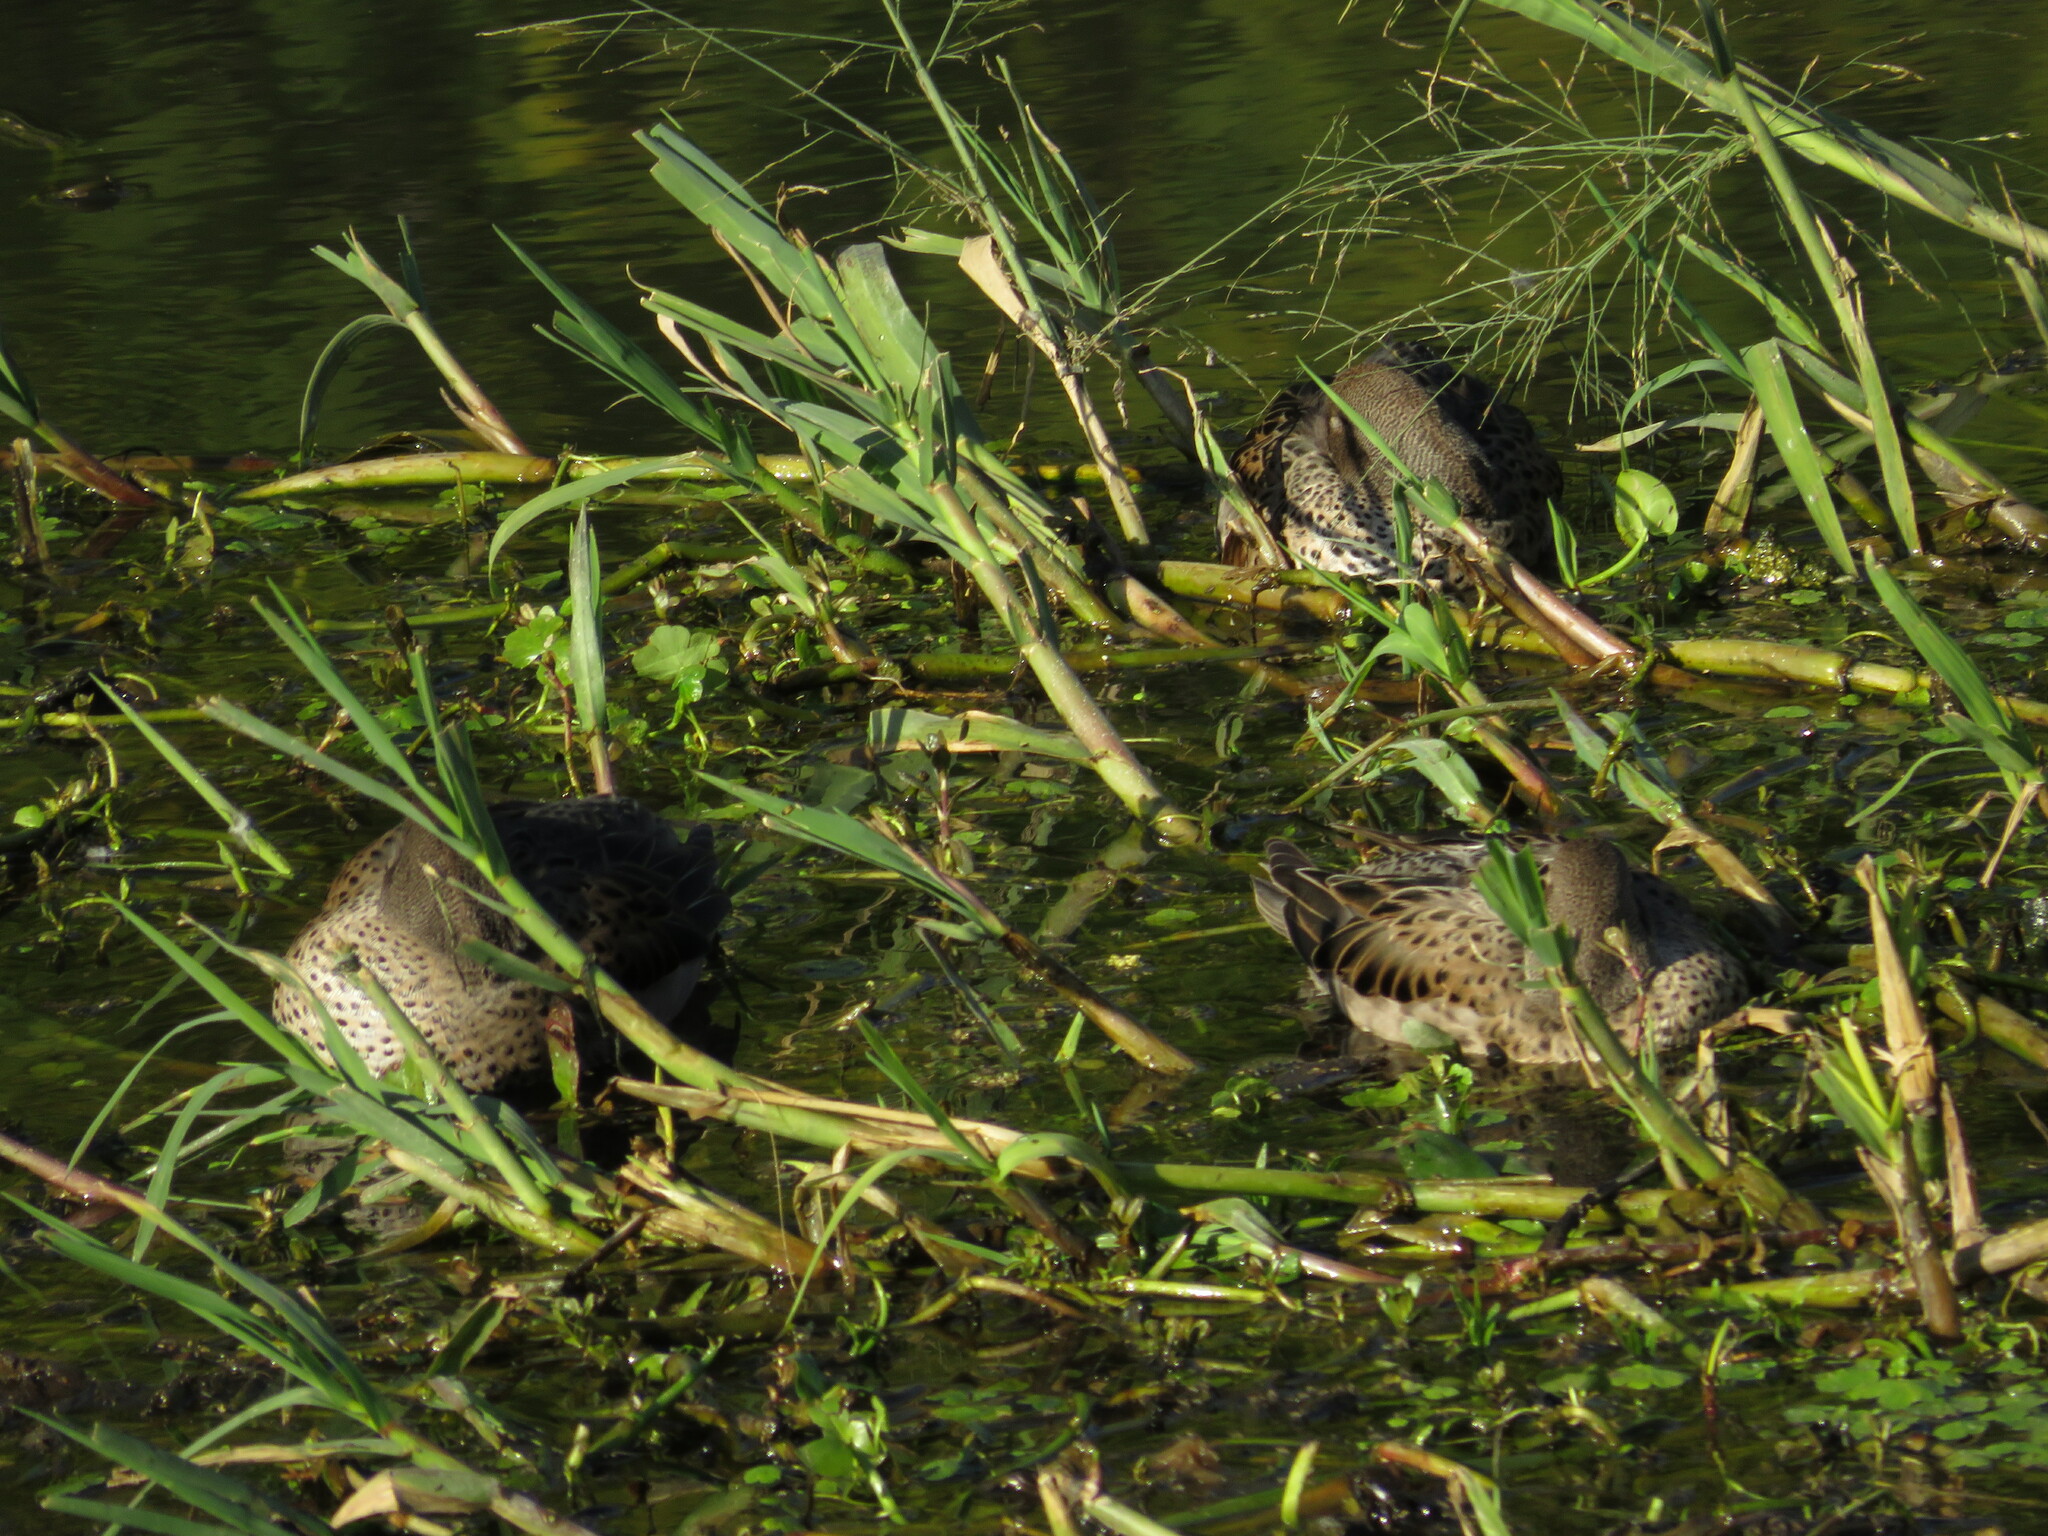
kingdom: Animalia
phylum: Chordata
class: Aves
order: Anseriformes
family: Anatidae
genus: Anas
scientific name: Anas flavirostris
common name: Yellow-billed teal
